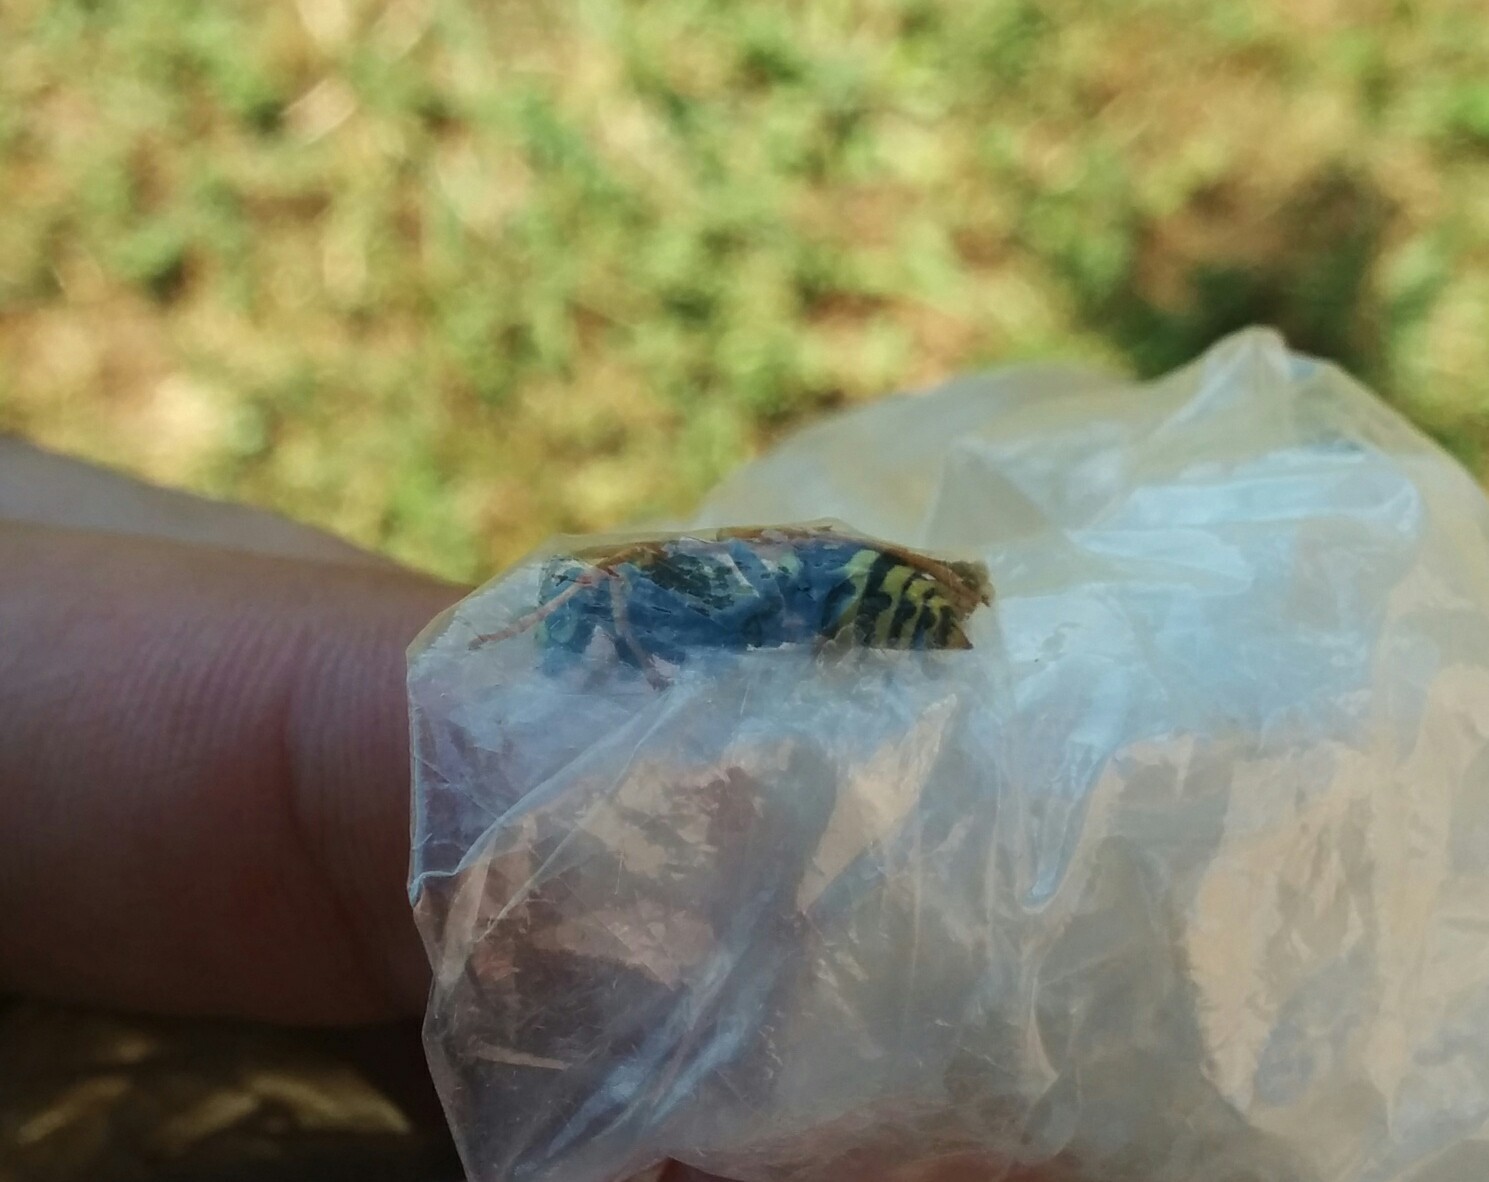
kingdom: Animalia
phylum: Arthropoda
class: Insecta
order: Hymenoptera
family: Eumenidae
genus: Polistes
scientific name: Polistes dominula
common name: Paper wasp
